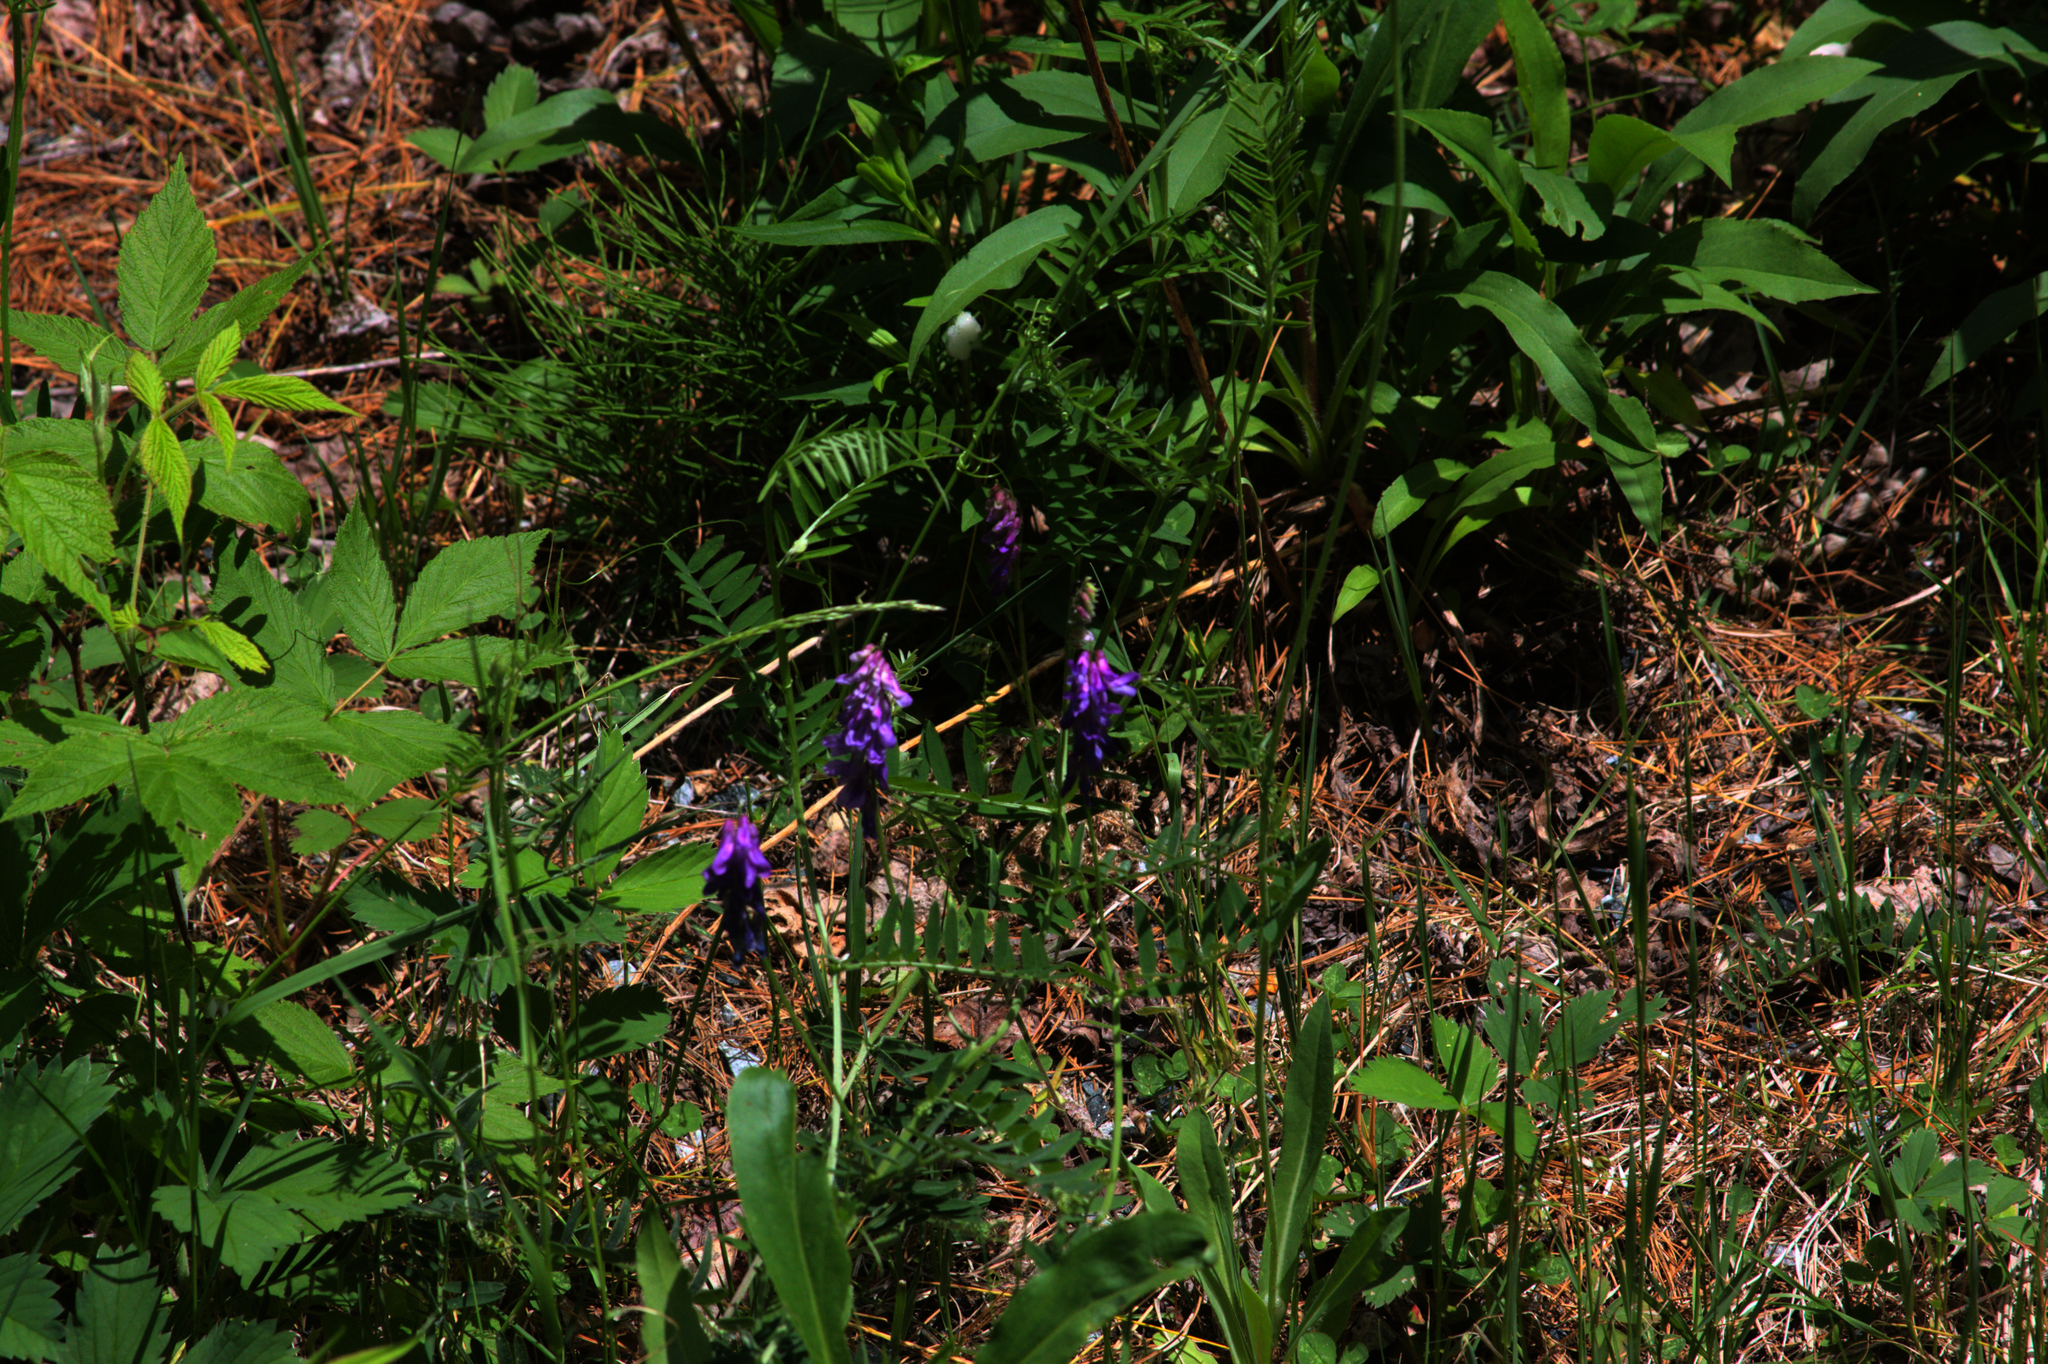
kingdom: Plantae
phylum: Tracheophyta
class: Magnoliopsida
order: Fabales
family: Fabaceae
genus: Vicia
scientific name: Vicia cracca
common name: Bird vetch
